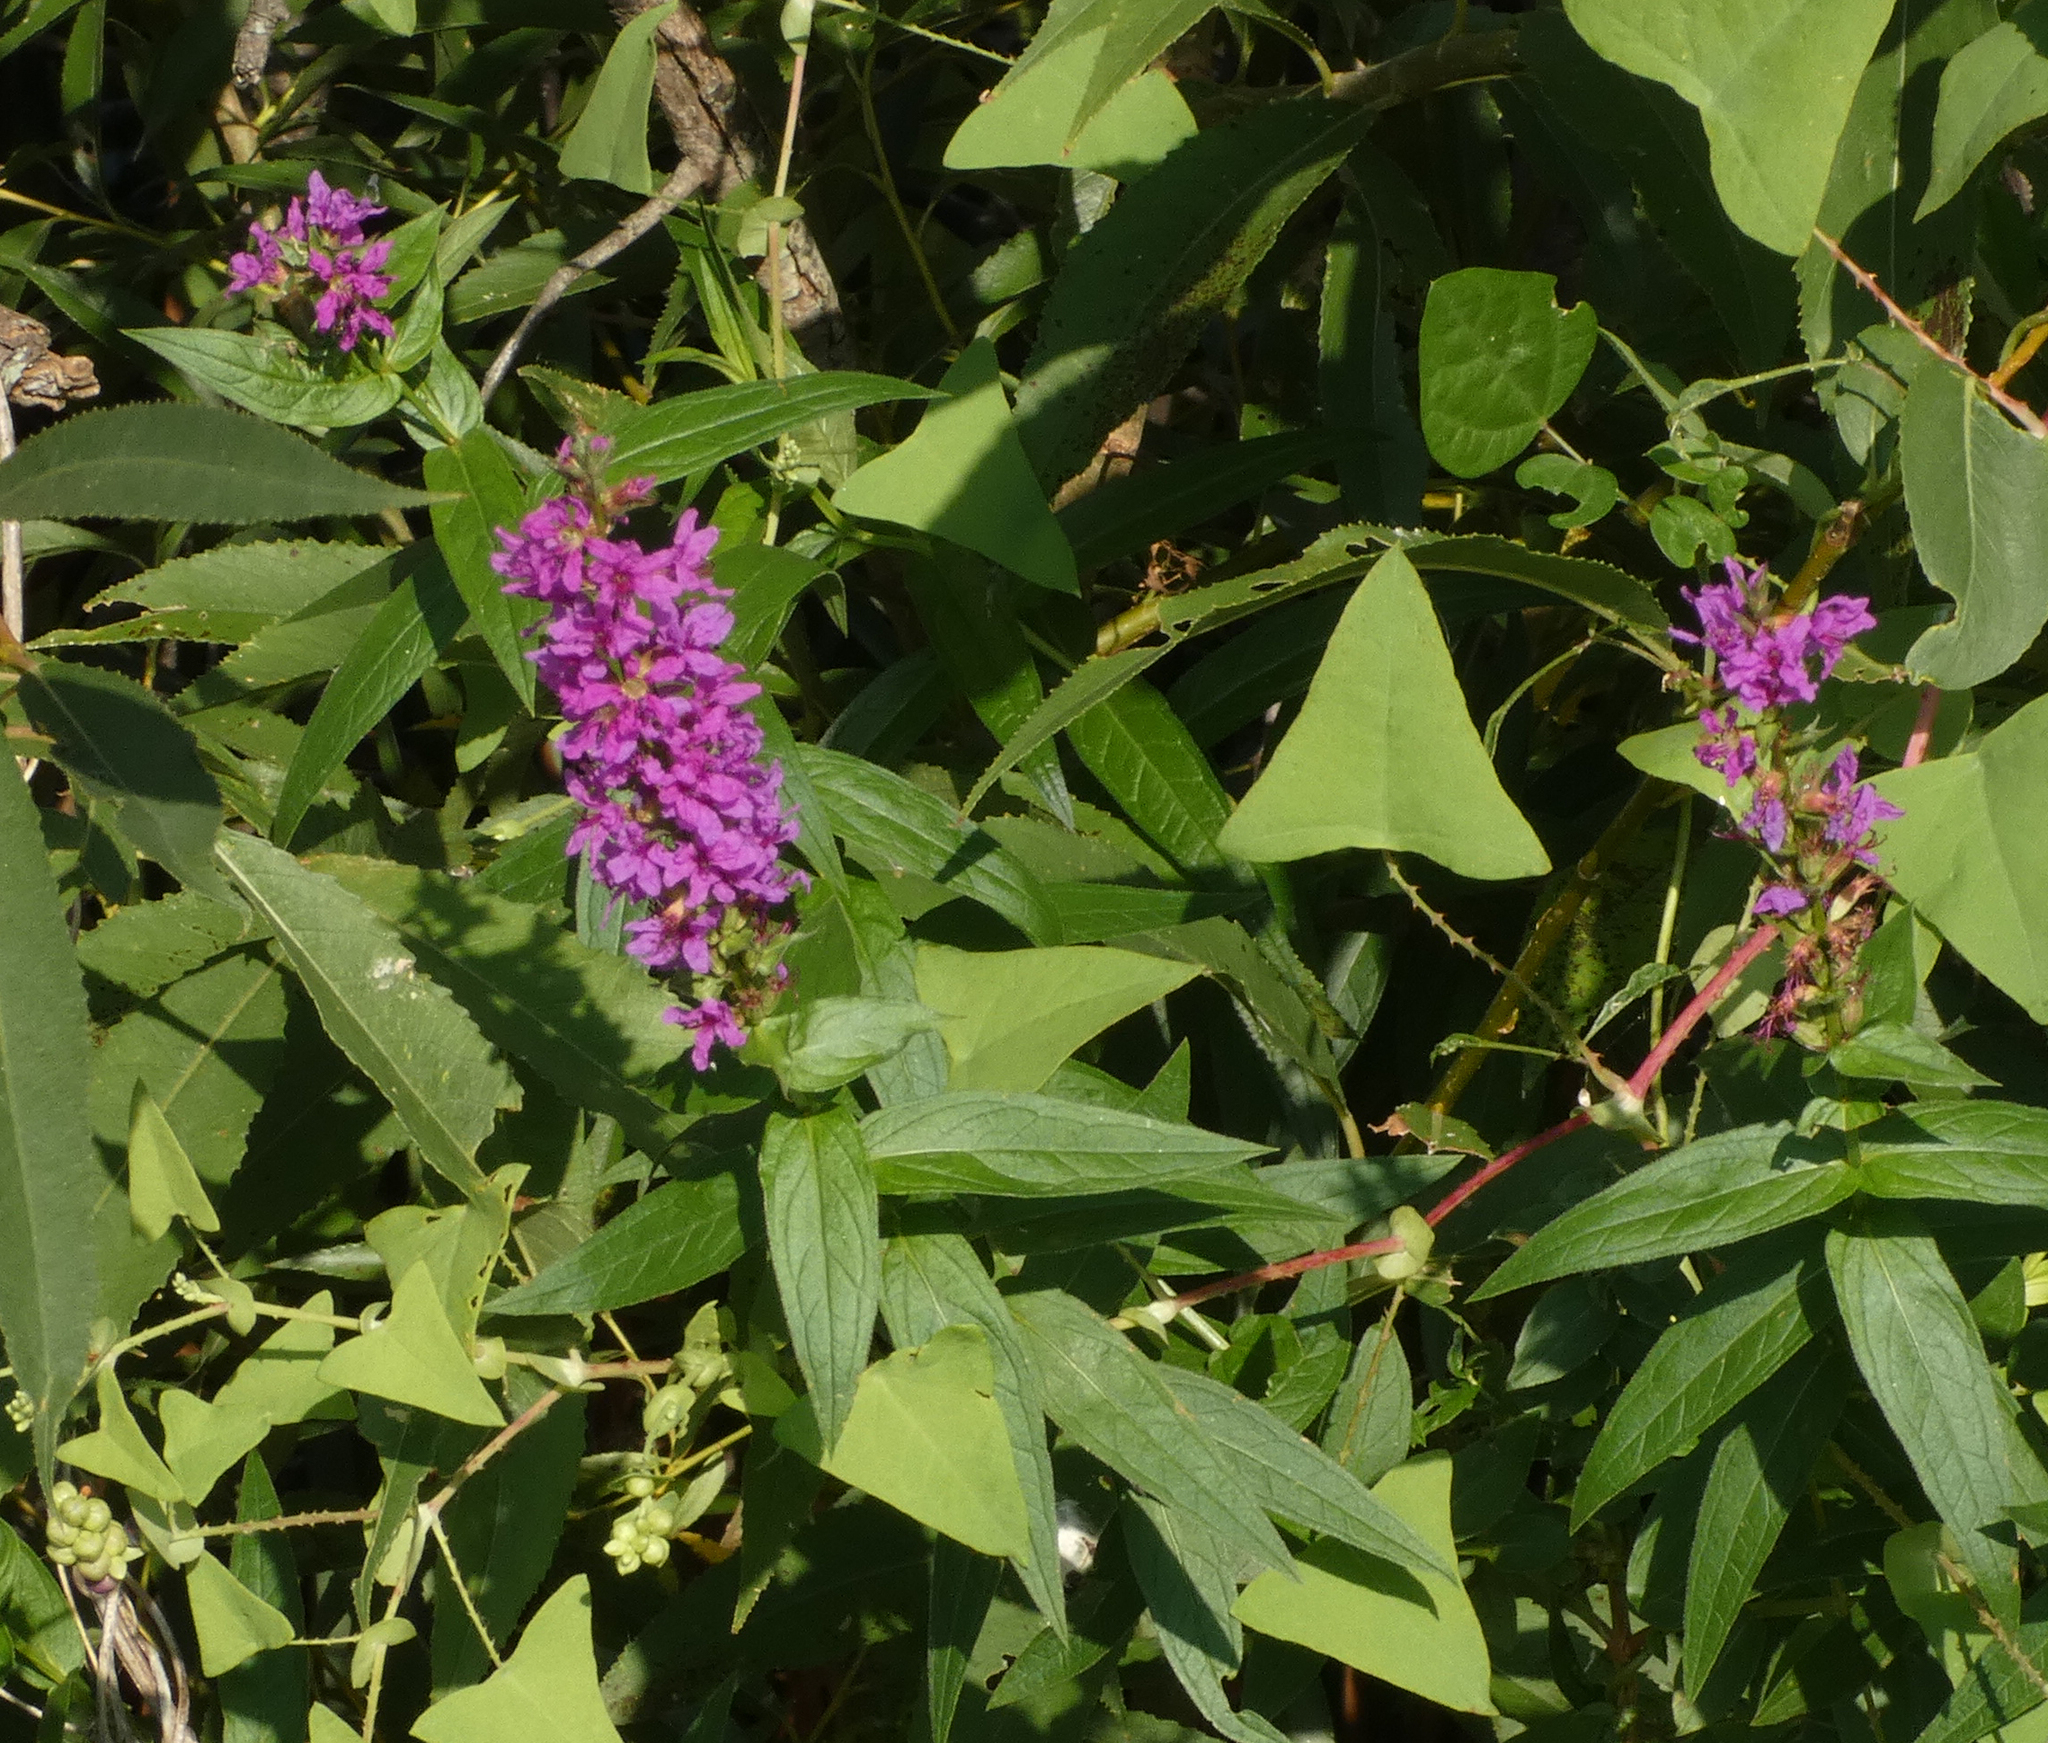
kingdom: Plantae
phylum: Tracheophyta
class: Magnoliopsida
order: Myrtales
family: Lythraceae
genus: Lythrum
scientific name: Lythrum salicaria
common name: Purple loosestrife
